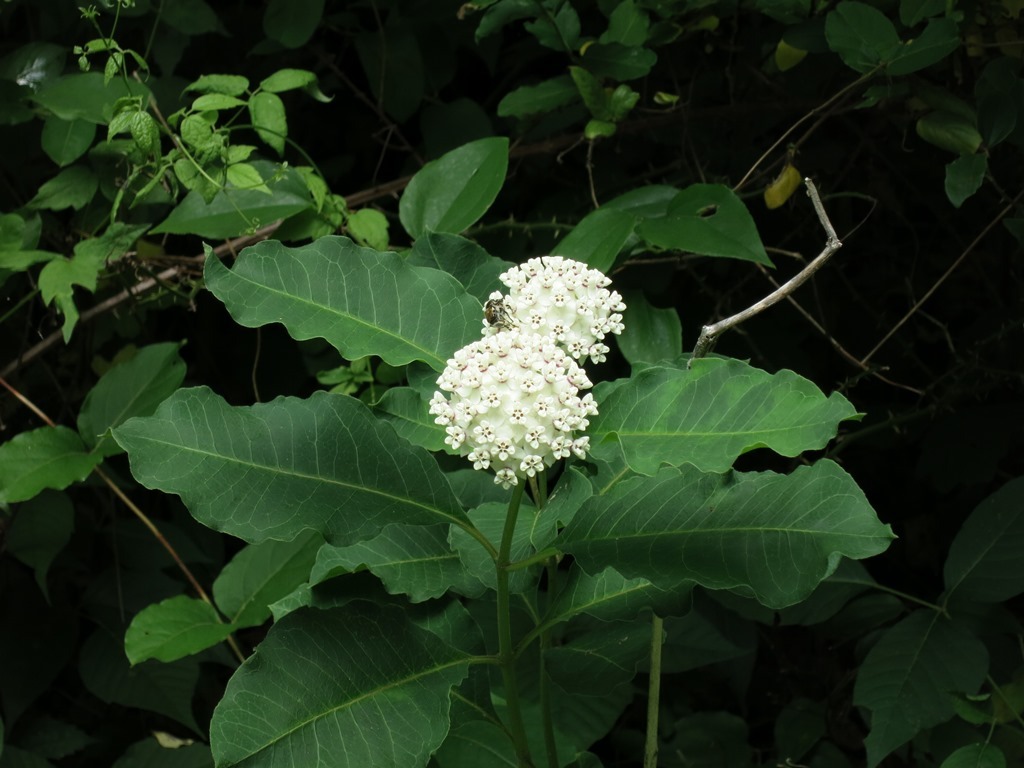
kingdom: Plantae
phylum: Tracheophyta
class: Magnoliopsida
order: Gentianales
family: Apocynaceae
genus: Asclepias
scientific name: Asclepias variegata
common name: Variegated milkweed
